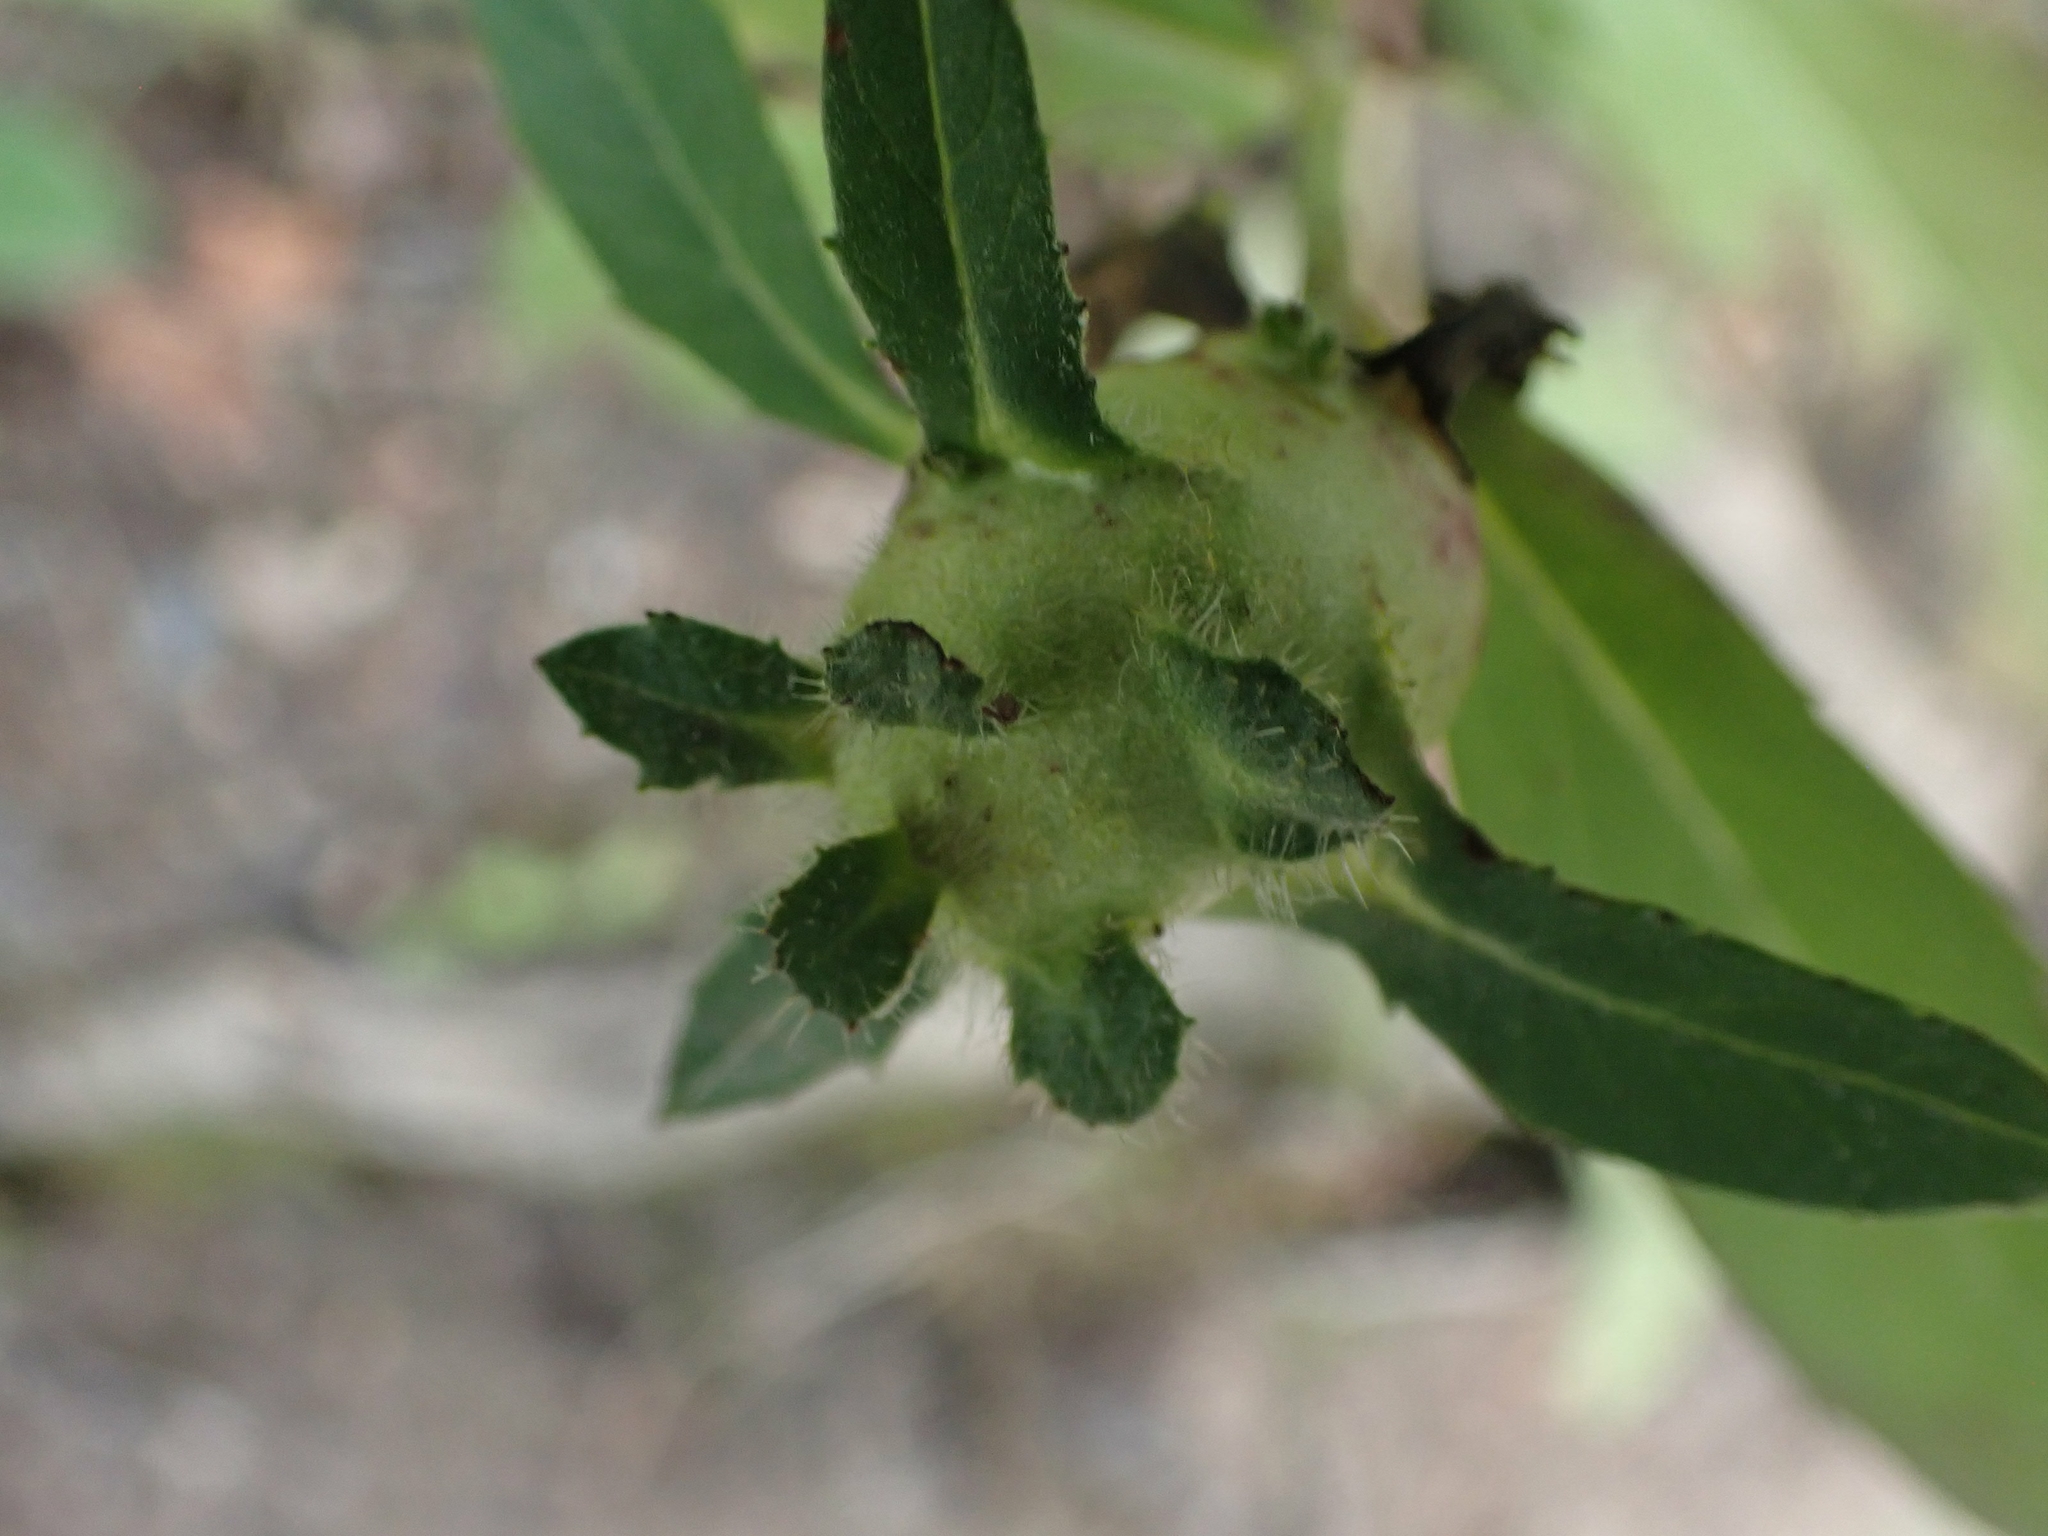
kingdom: Animalia
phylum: Arthropoda
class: Insecta
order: Diptera
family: Cecidomyiidae
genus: Rabdophaga
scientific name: Rabdophaga salicisbatatas
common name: Potato gall midge
